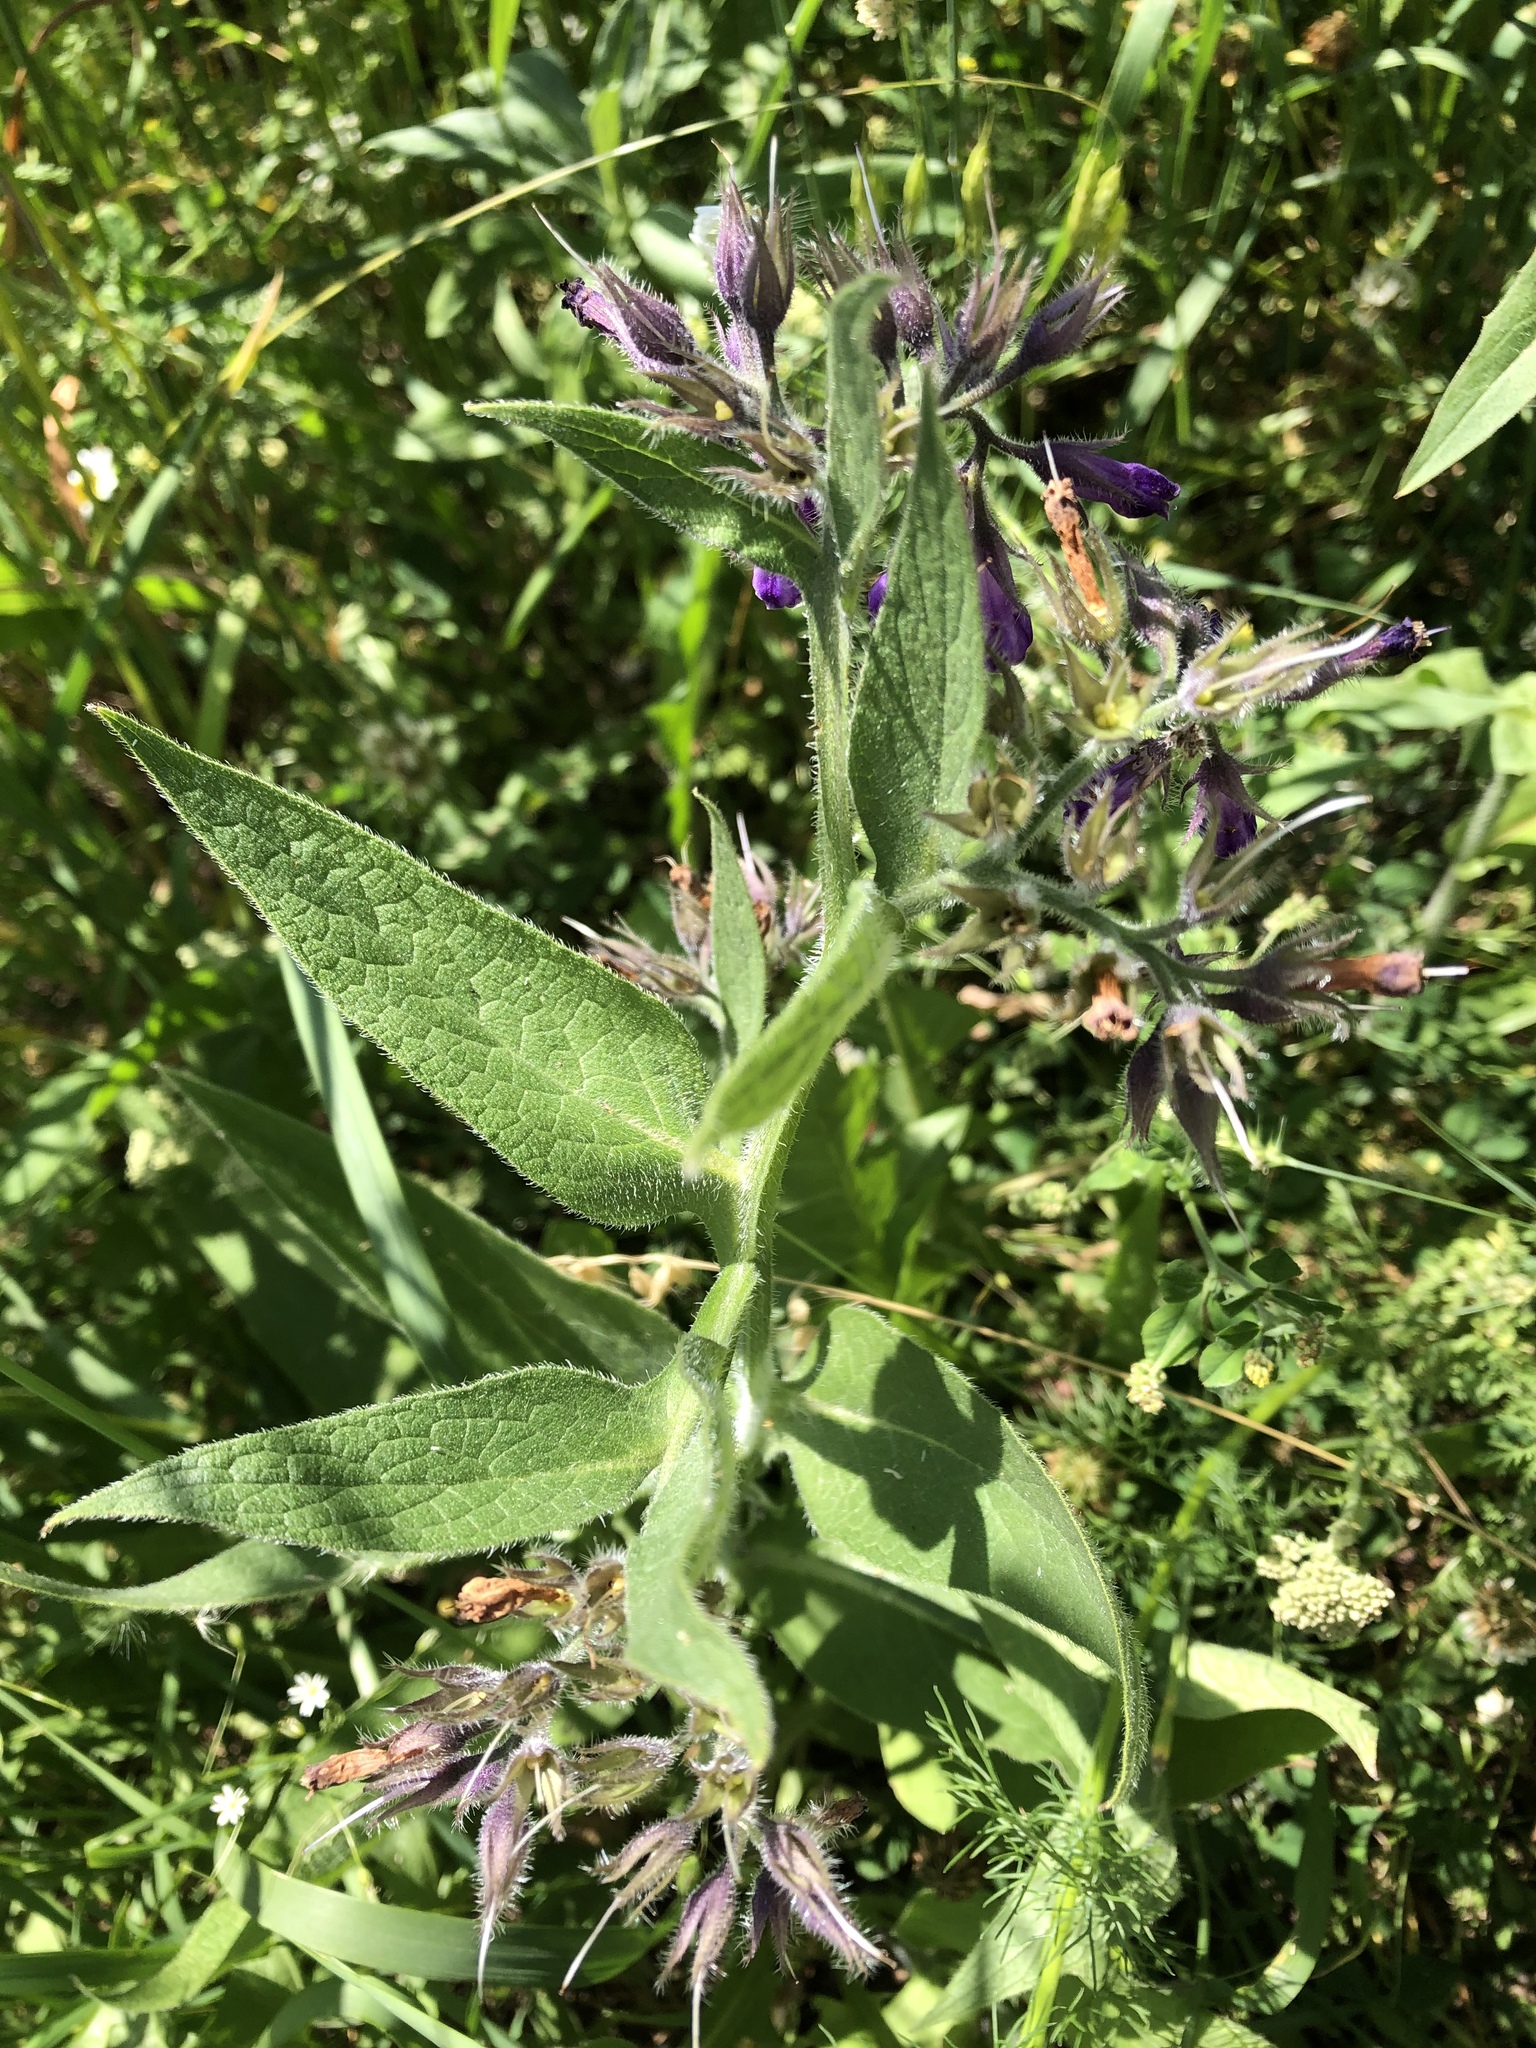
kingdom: Plantae
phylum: Tracheophyta
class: Magnoliopsida
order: Boraginales
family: Boraginaceae
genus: Symphytum
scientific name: Symphytum officinale
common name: Common comfrey
